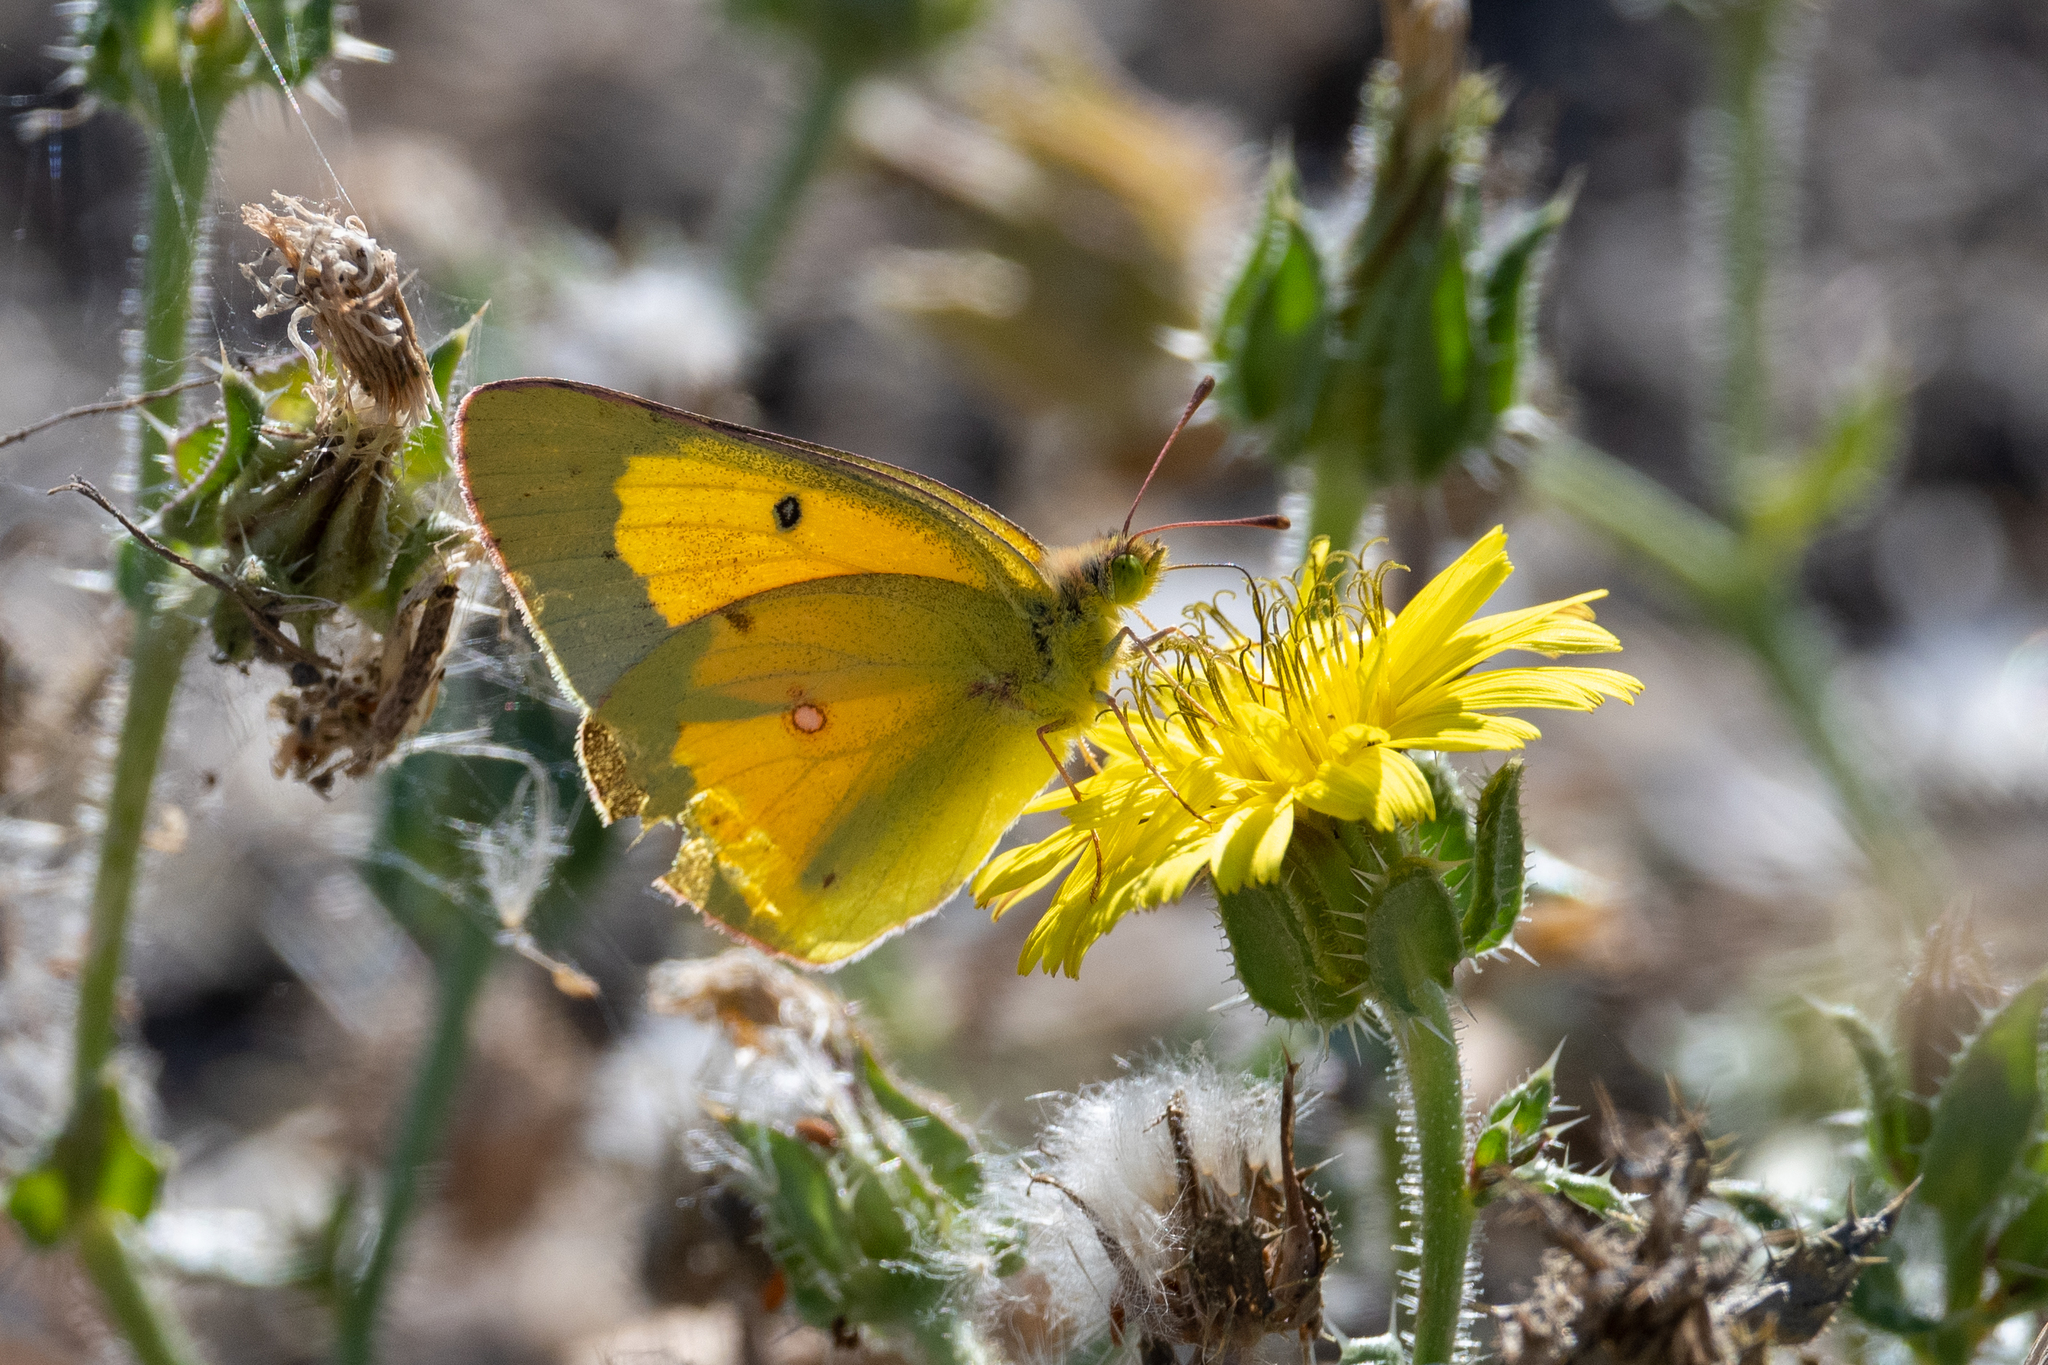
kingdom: Animalia
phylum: Arthropoda
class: Insecta
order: Lepidoptera
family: Pieridae
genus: Colias
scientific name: Colias eurytheme
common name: Alfalfa butterfly
